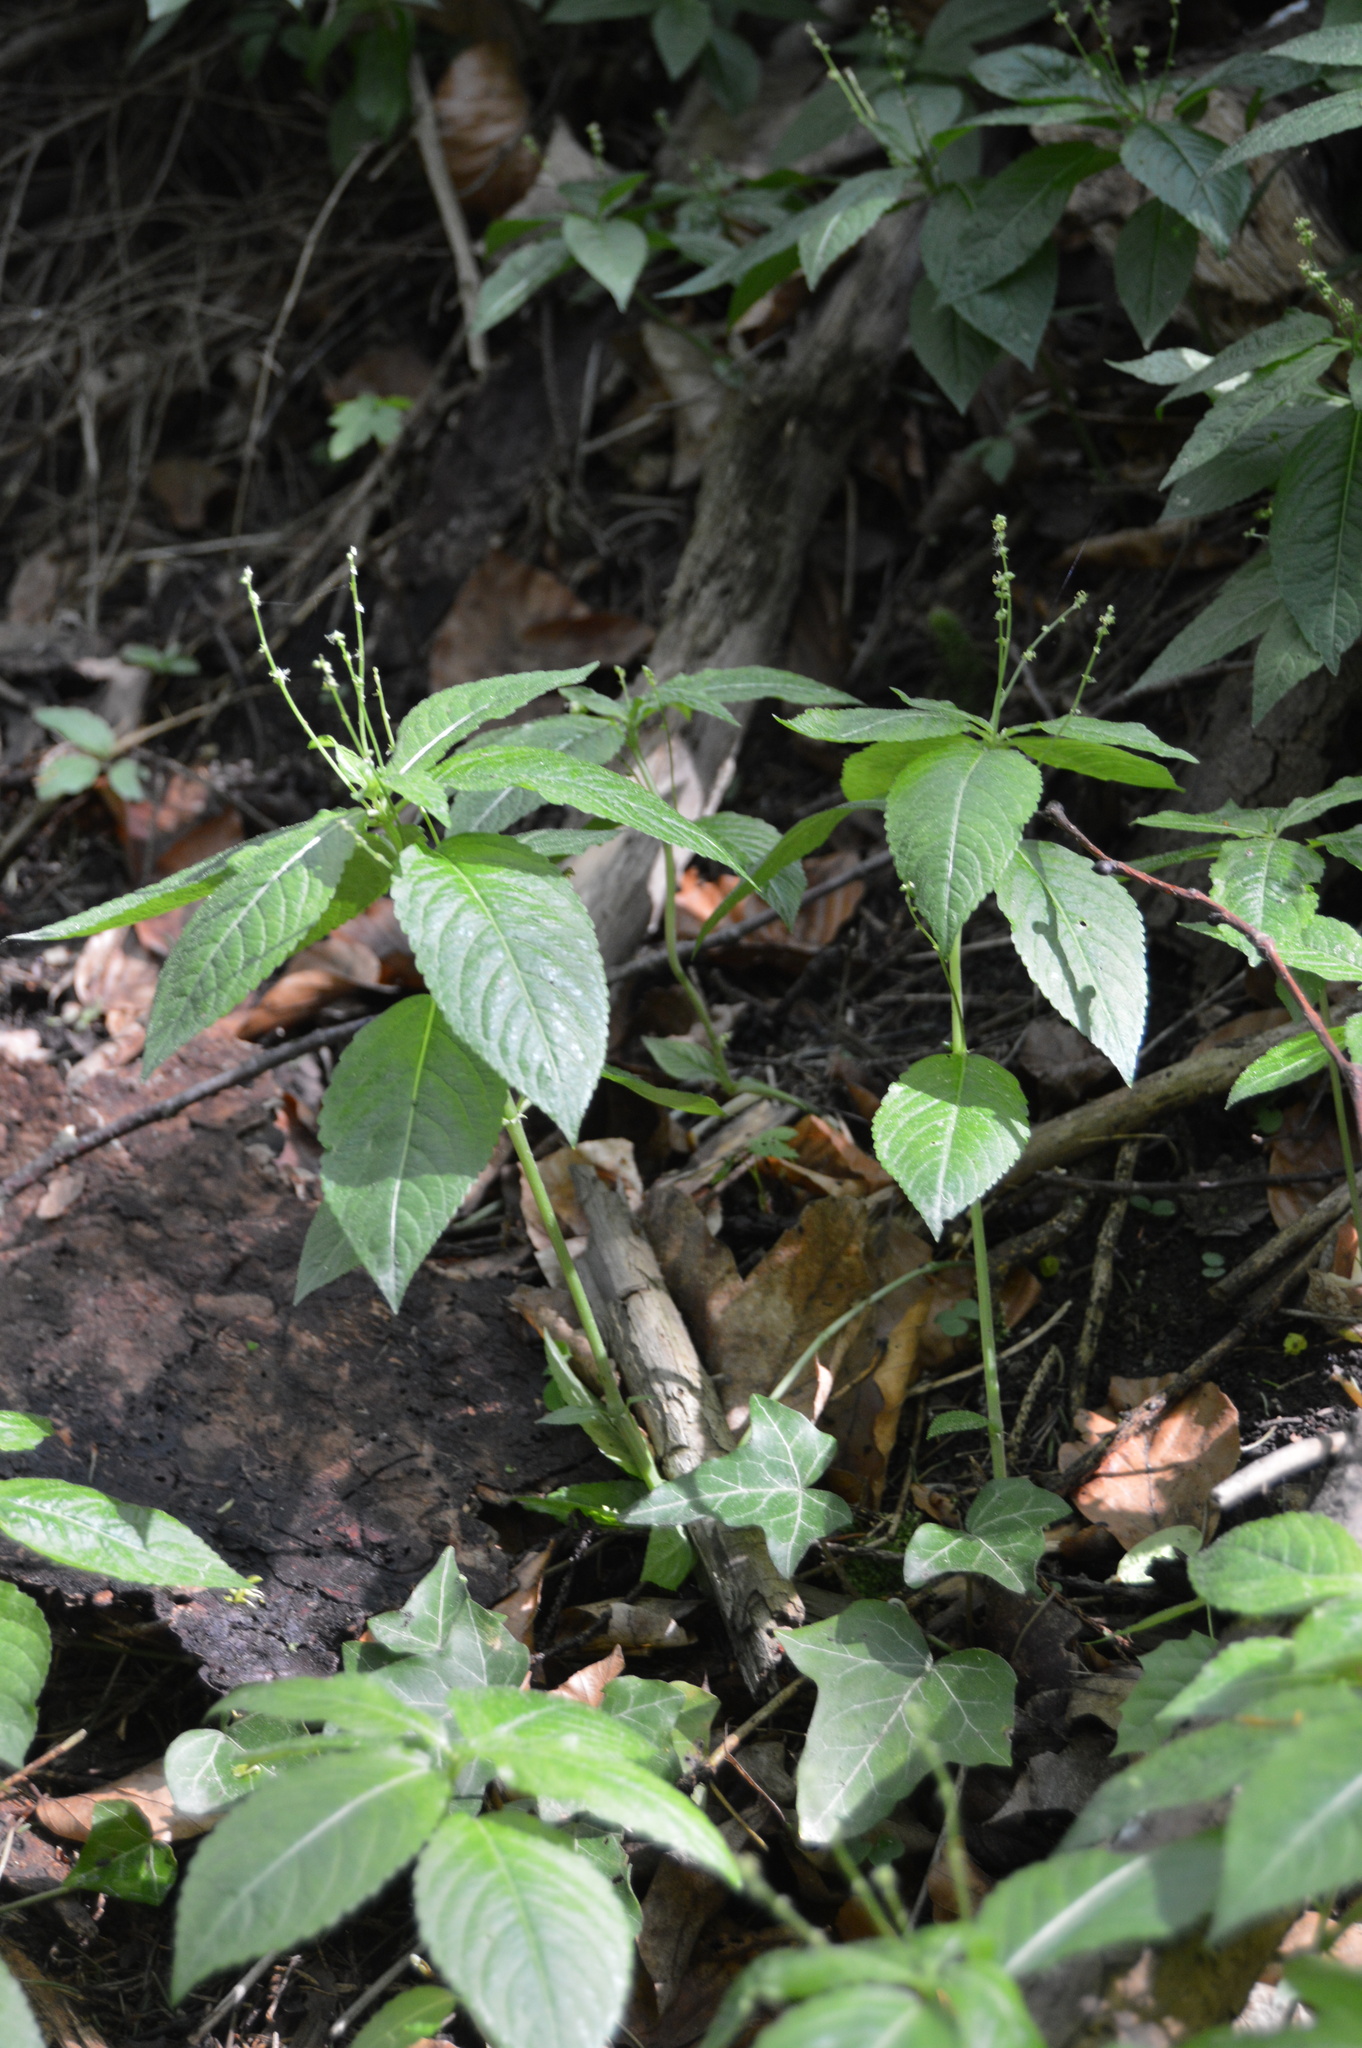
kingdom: Plantae
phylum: Tracheophyta
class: Magnoliopsida
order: Malpighiales
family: Euphorbiaceae
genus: Mercurialis
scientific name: Mercurialis perennis
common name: Dog mercury
